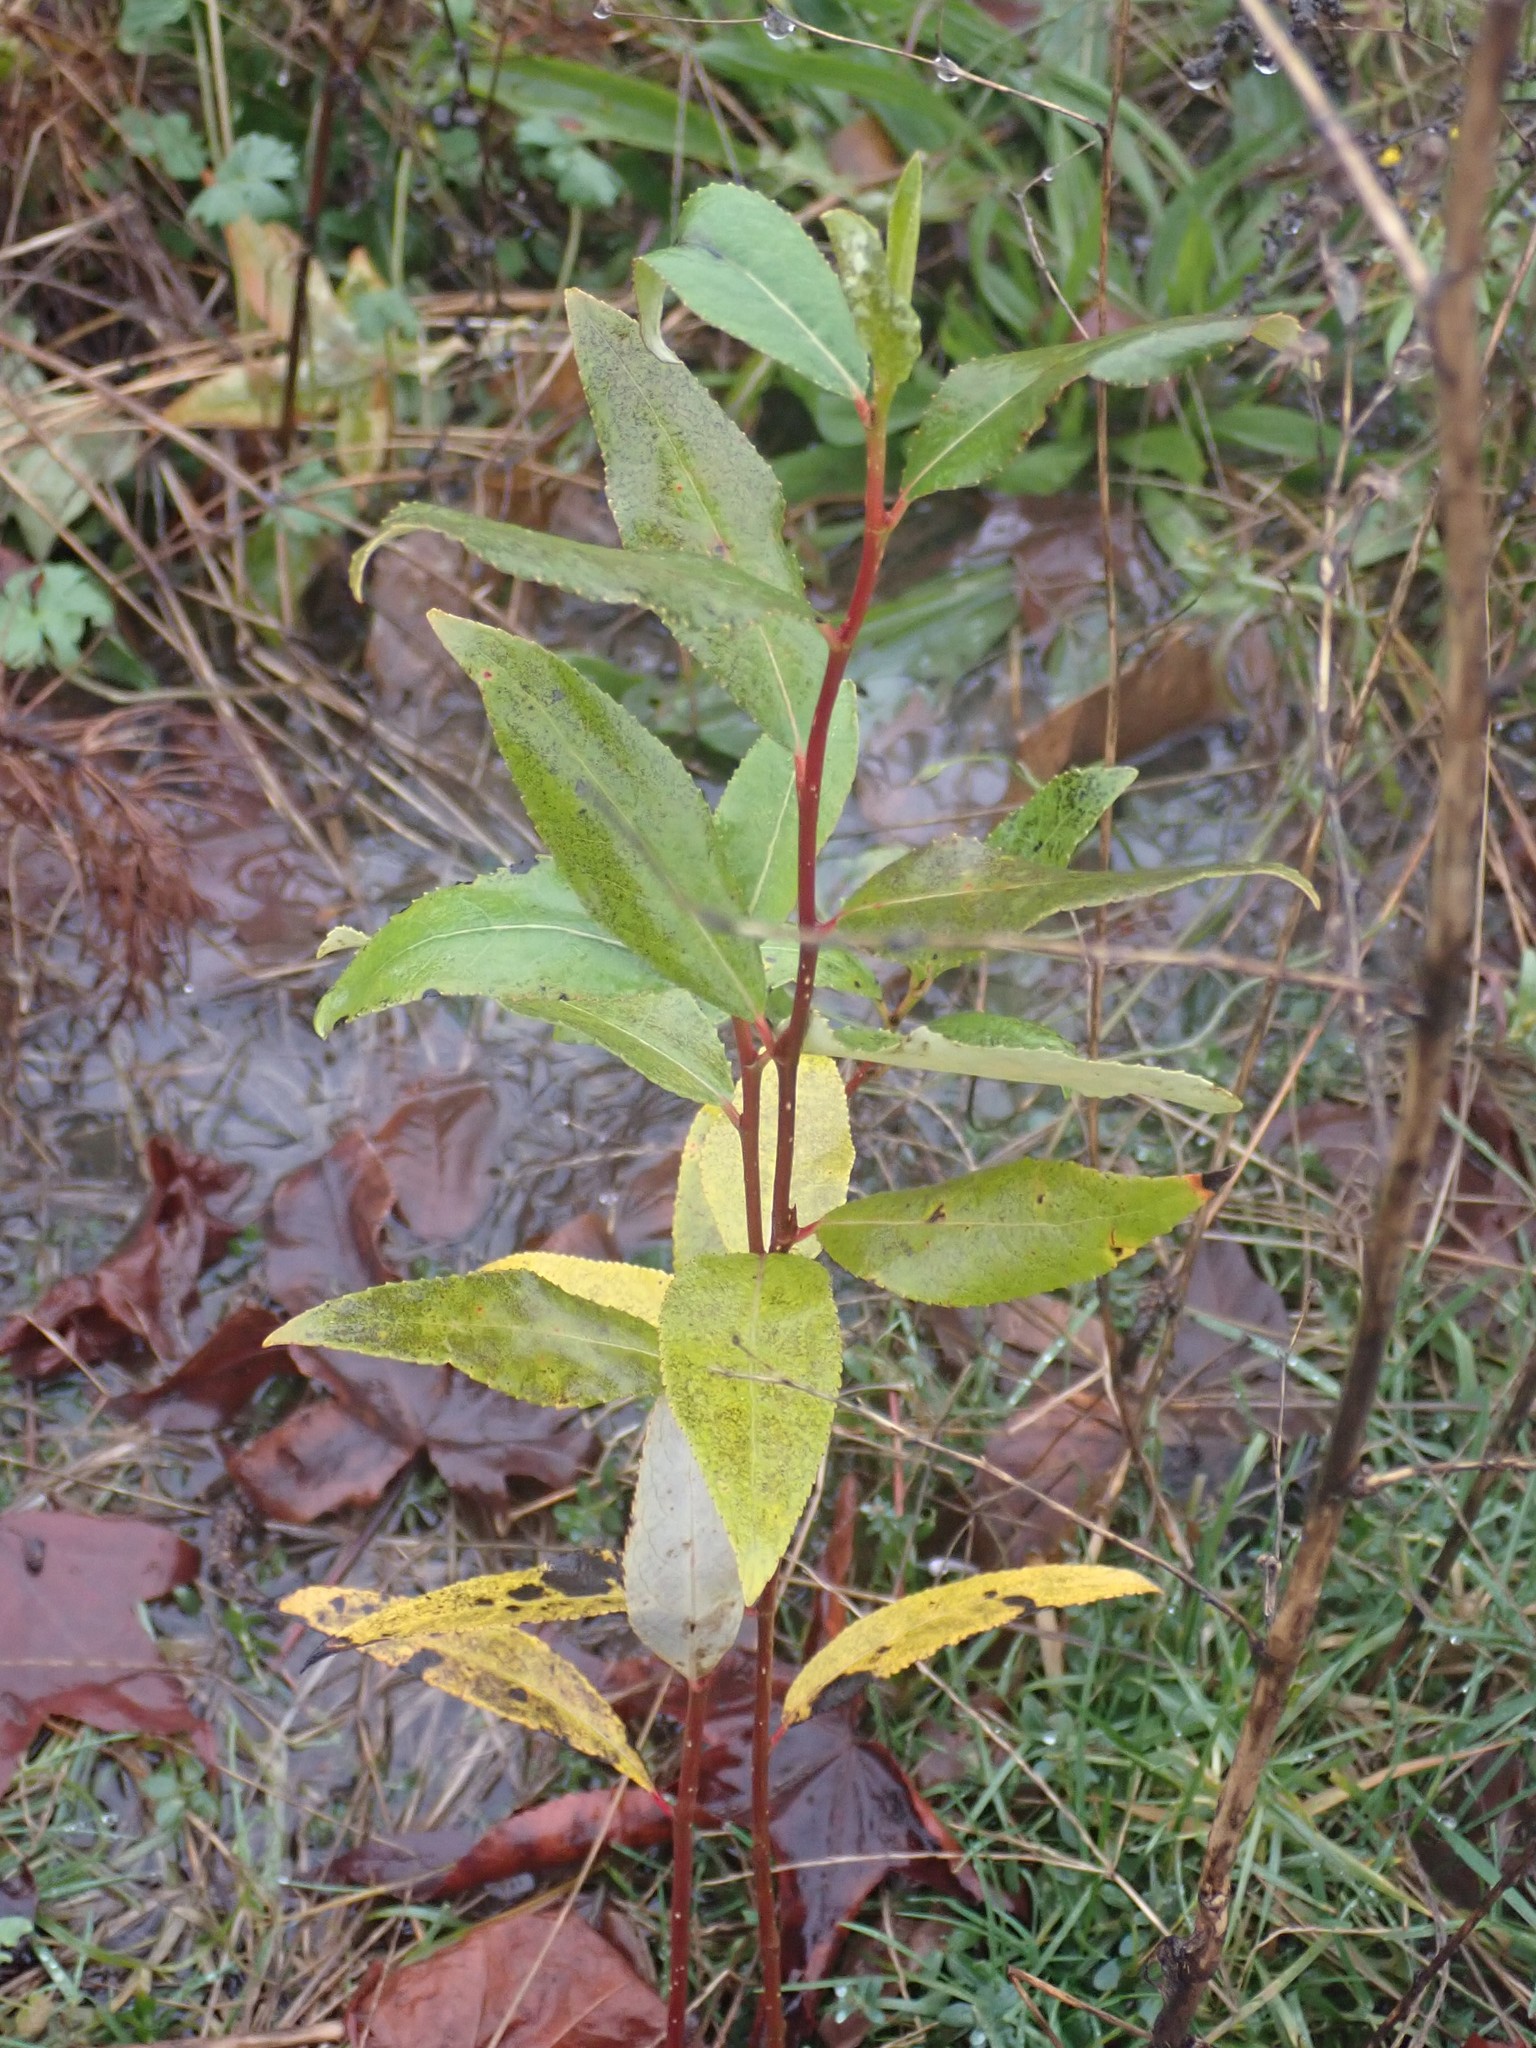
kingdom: Plantae
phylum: Tracheophyta
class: Magnoliopsida
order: Malpighiales
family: Salicaceae
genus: Populus
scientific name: Populus trichocarpa
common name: Black cottonwood
